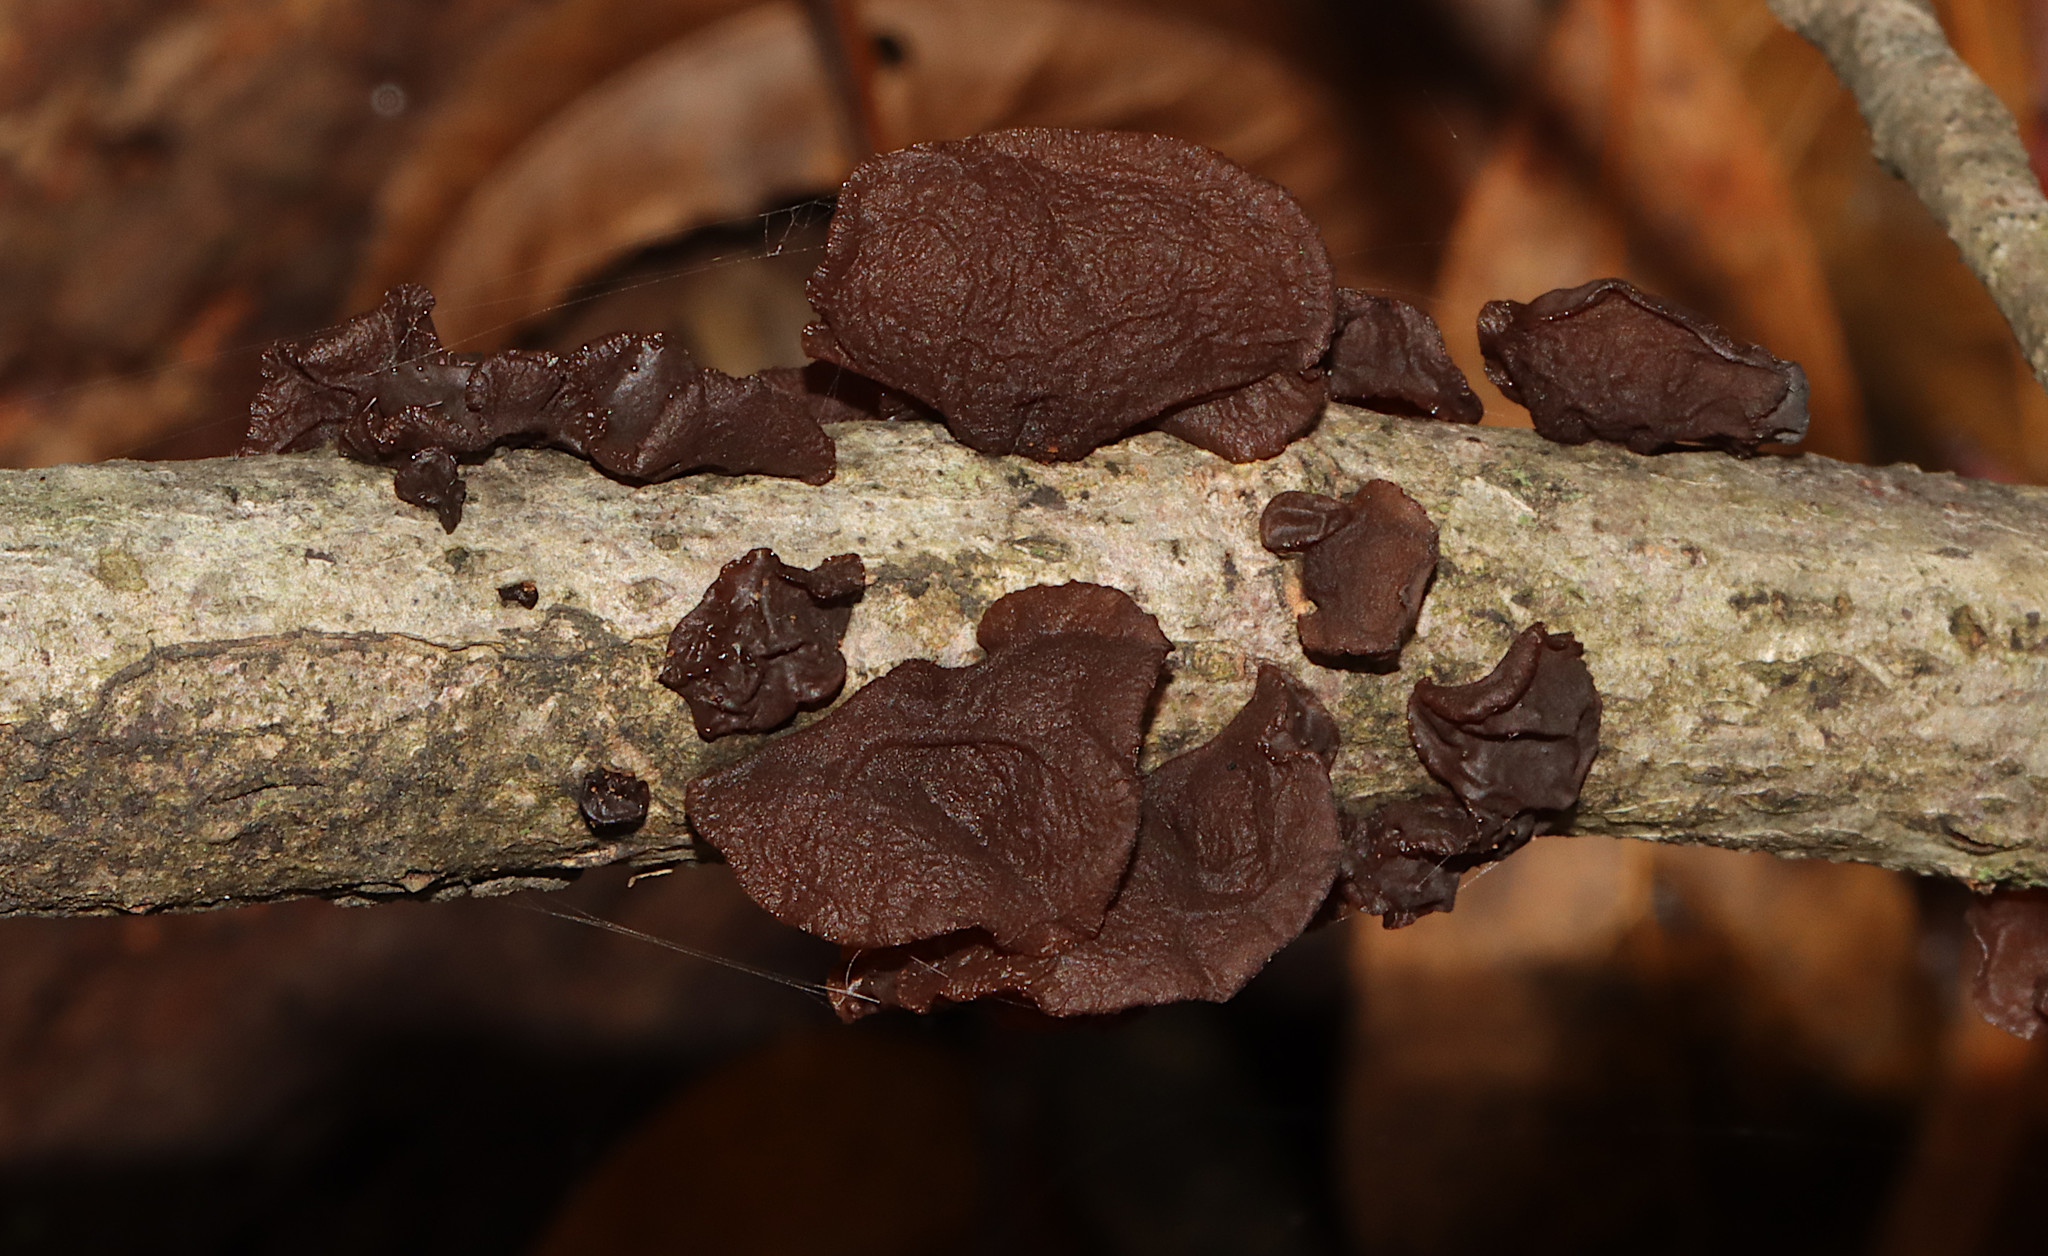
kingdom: Fungi
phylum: Basidiomycota
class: Agaricomycetes
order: Auriculariales
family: Auriculariaceae
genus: Exidia
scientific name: Exidia
